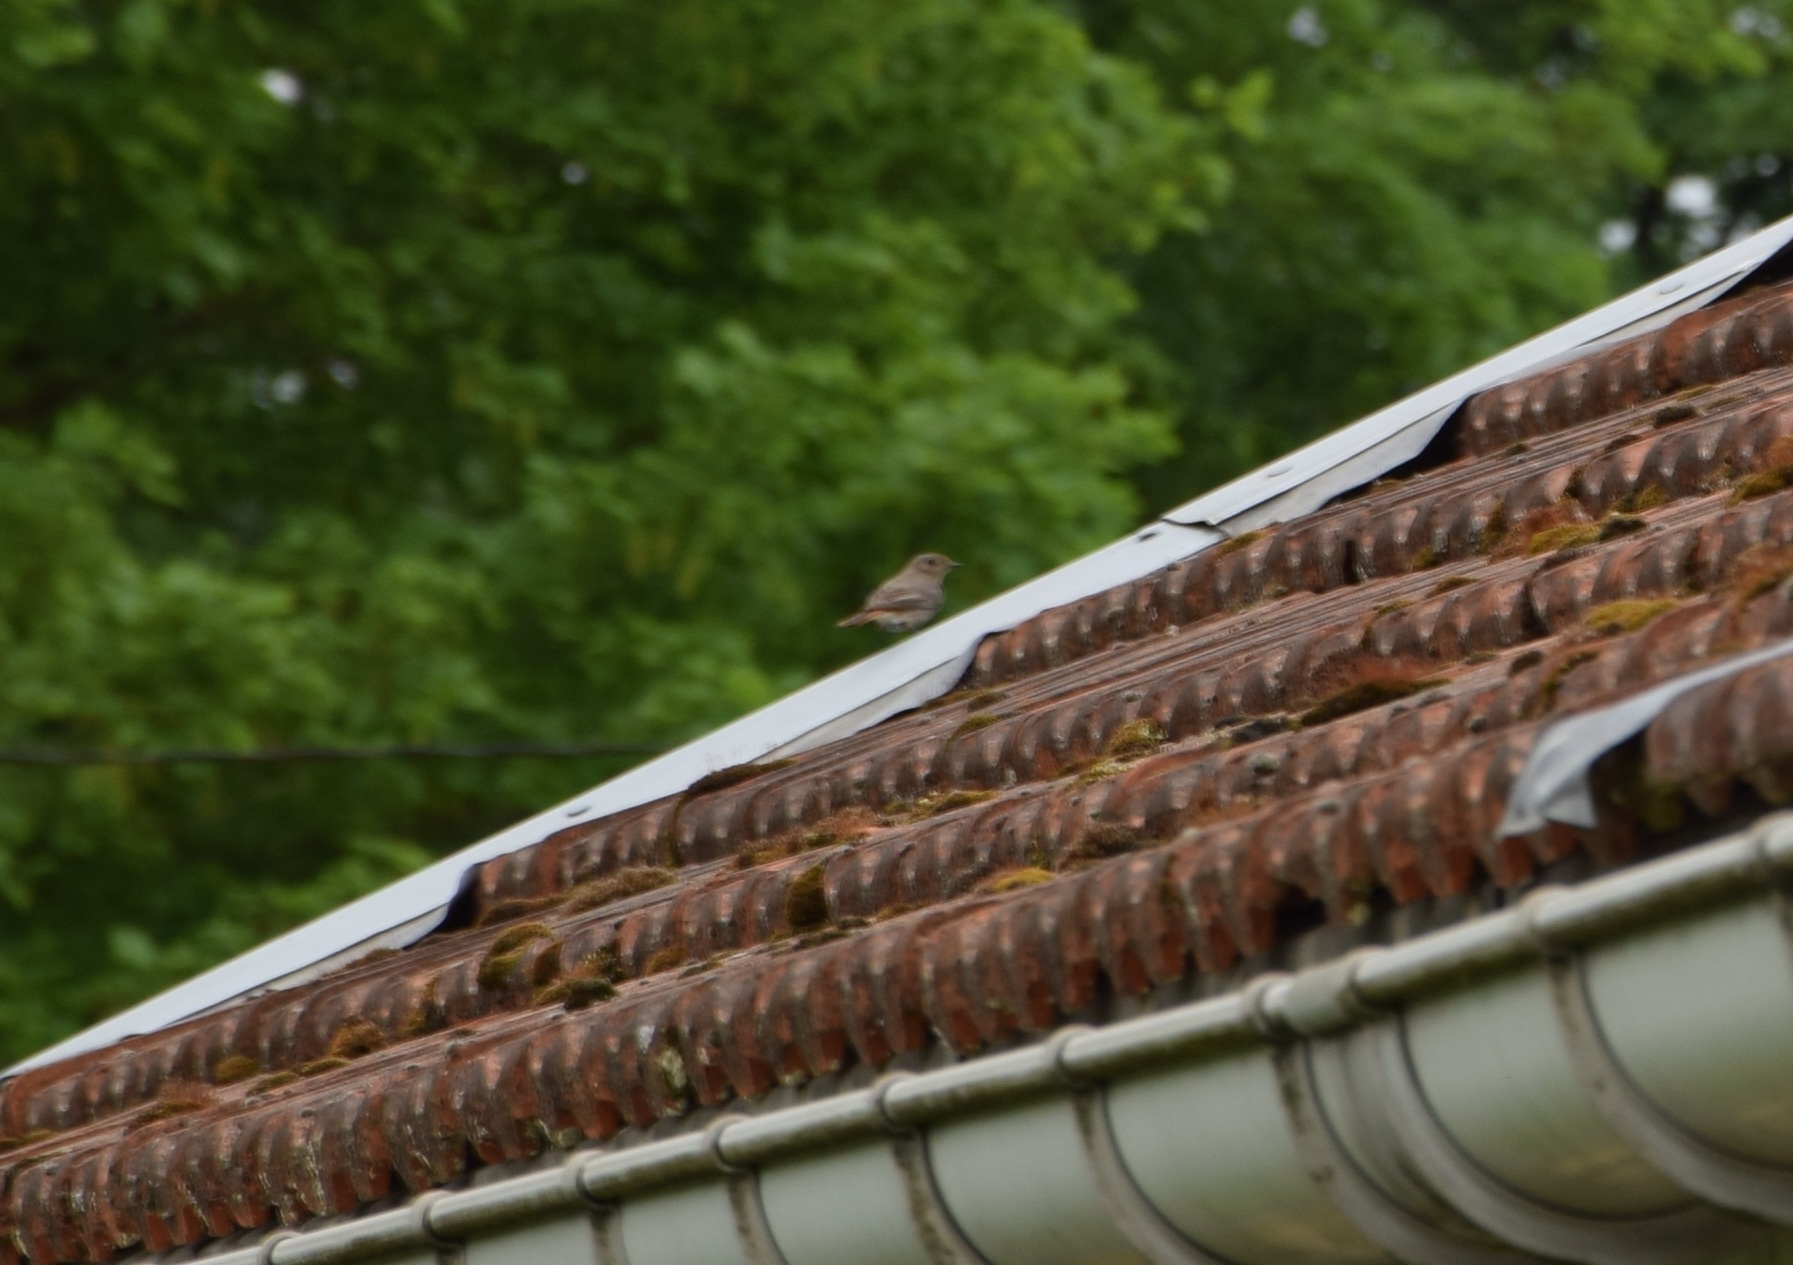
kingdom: Animalia
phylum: Chordata
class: Aves
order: Passeriformes
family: Muscicapidae
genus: Phoenicurus
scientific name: Phoenicurus ochruros
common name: Black redstart
